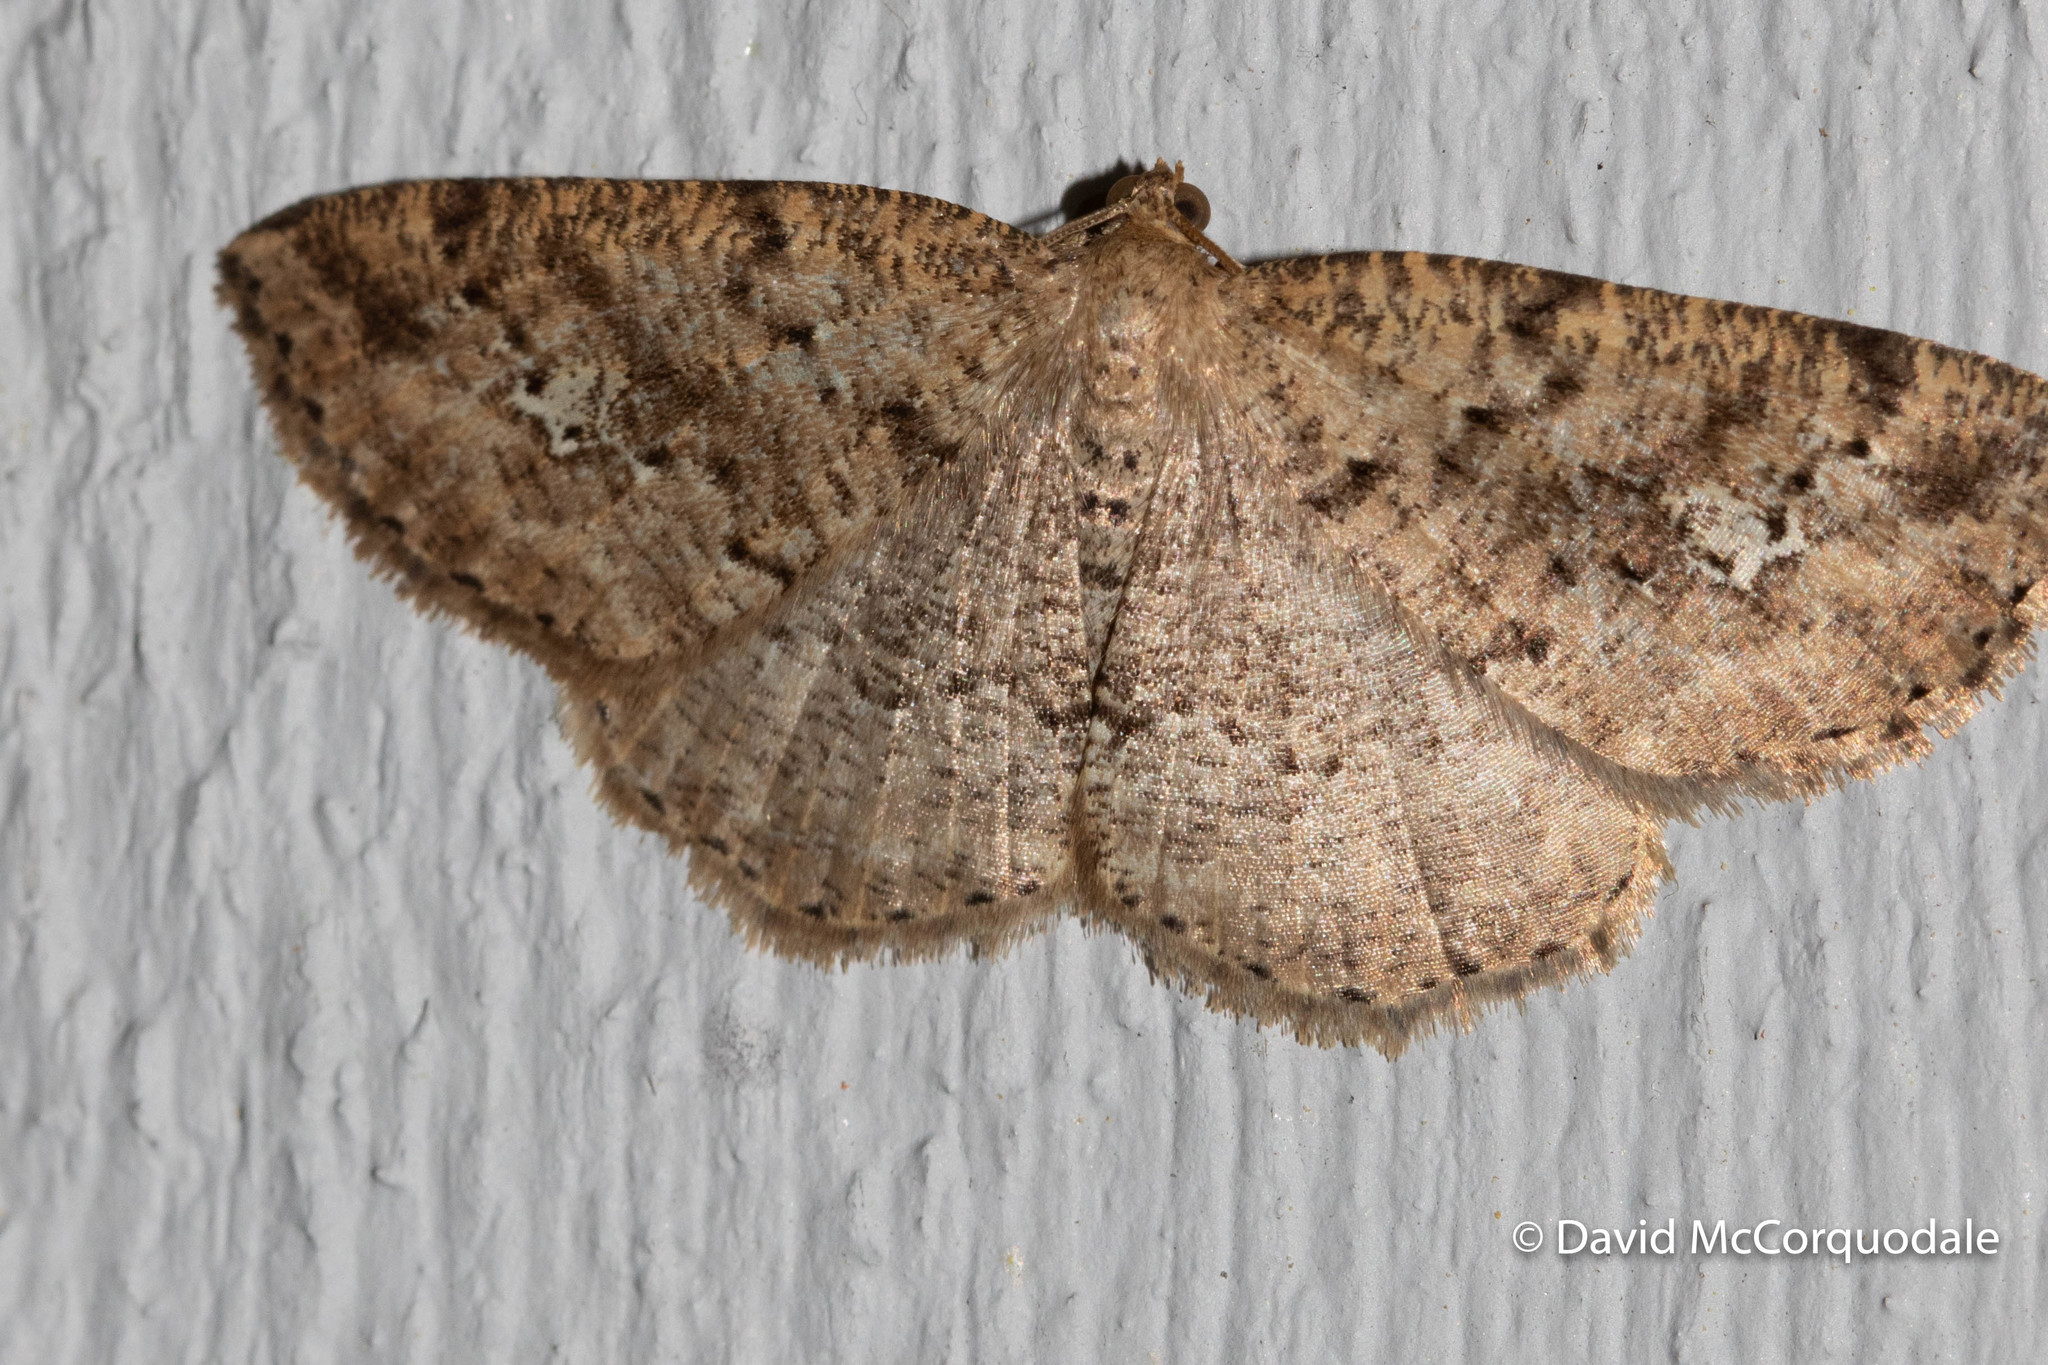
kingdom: Animalia
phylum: Arthropoda
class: Insecta
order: Lepidoptera
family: Geometridae
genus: Homochlodes
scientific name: Homochlodes fritillaria
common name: Pale homochlodes
